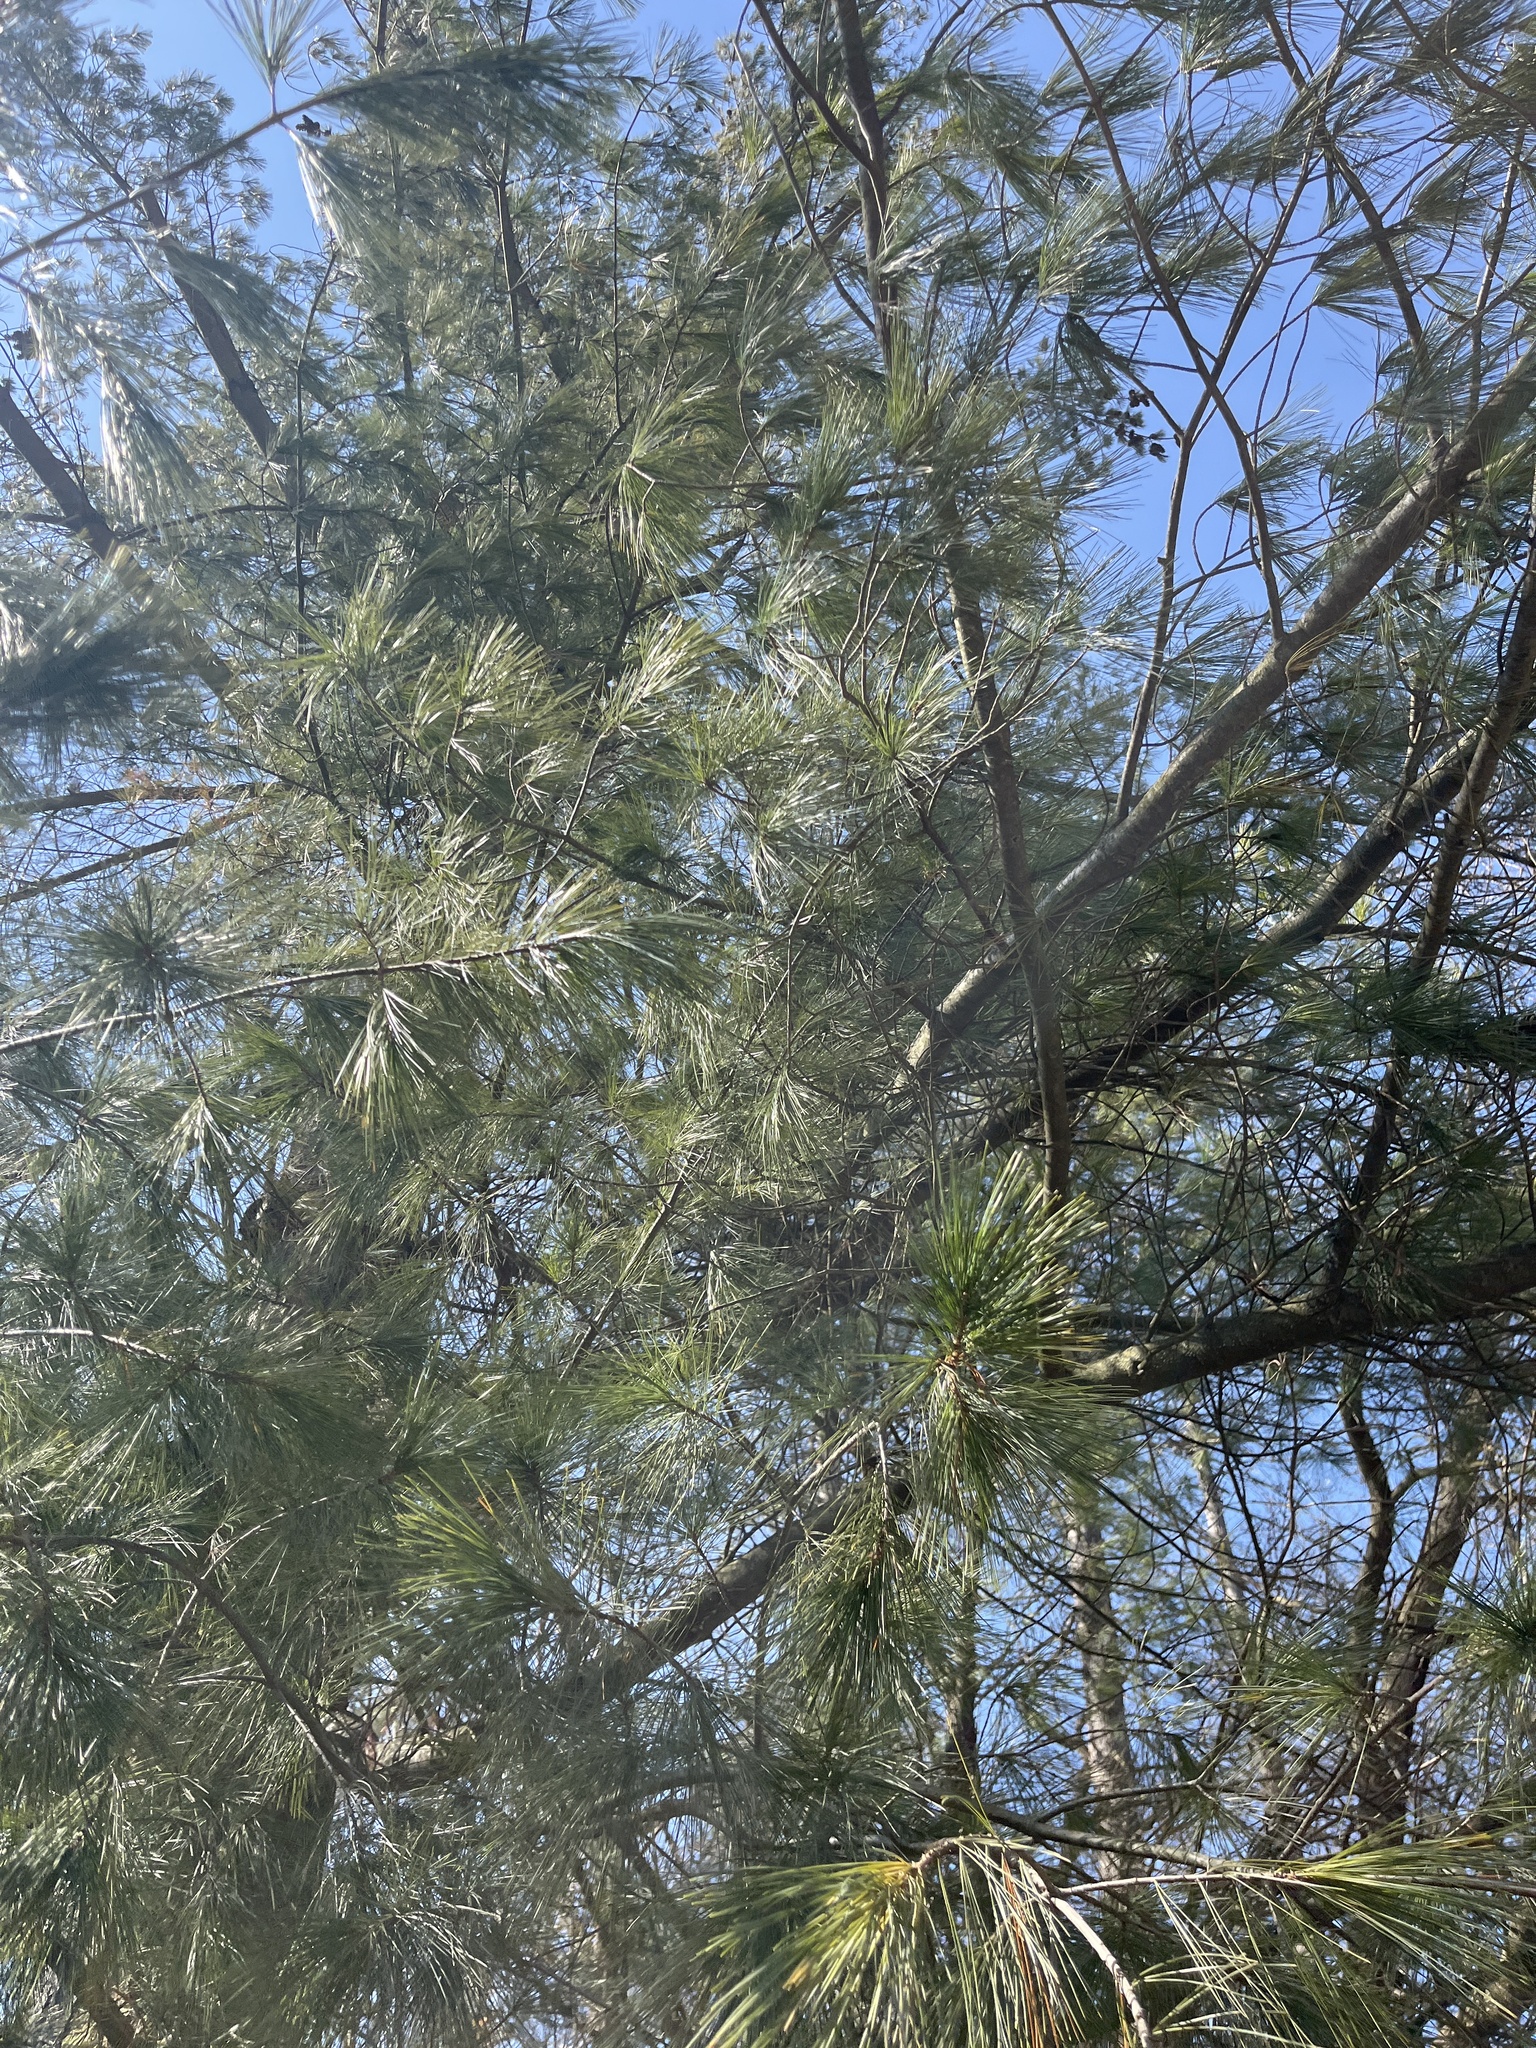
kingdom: Plantae
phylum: Tracheophyta
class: Pinopsida
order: Pinales
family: Pinaceae
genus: Pinus
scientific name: Pinus strobus
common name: Weymouth pine
